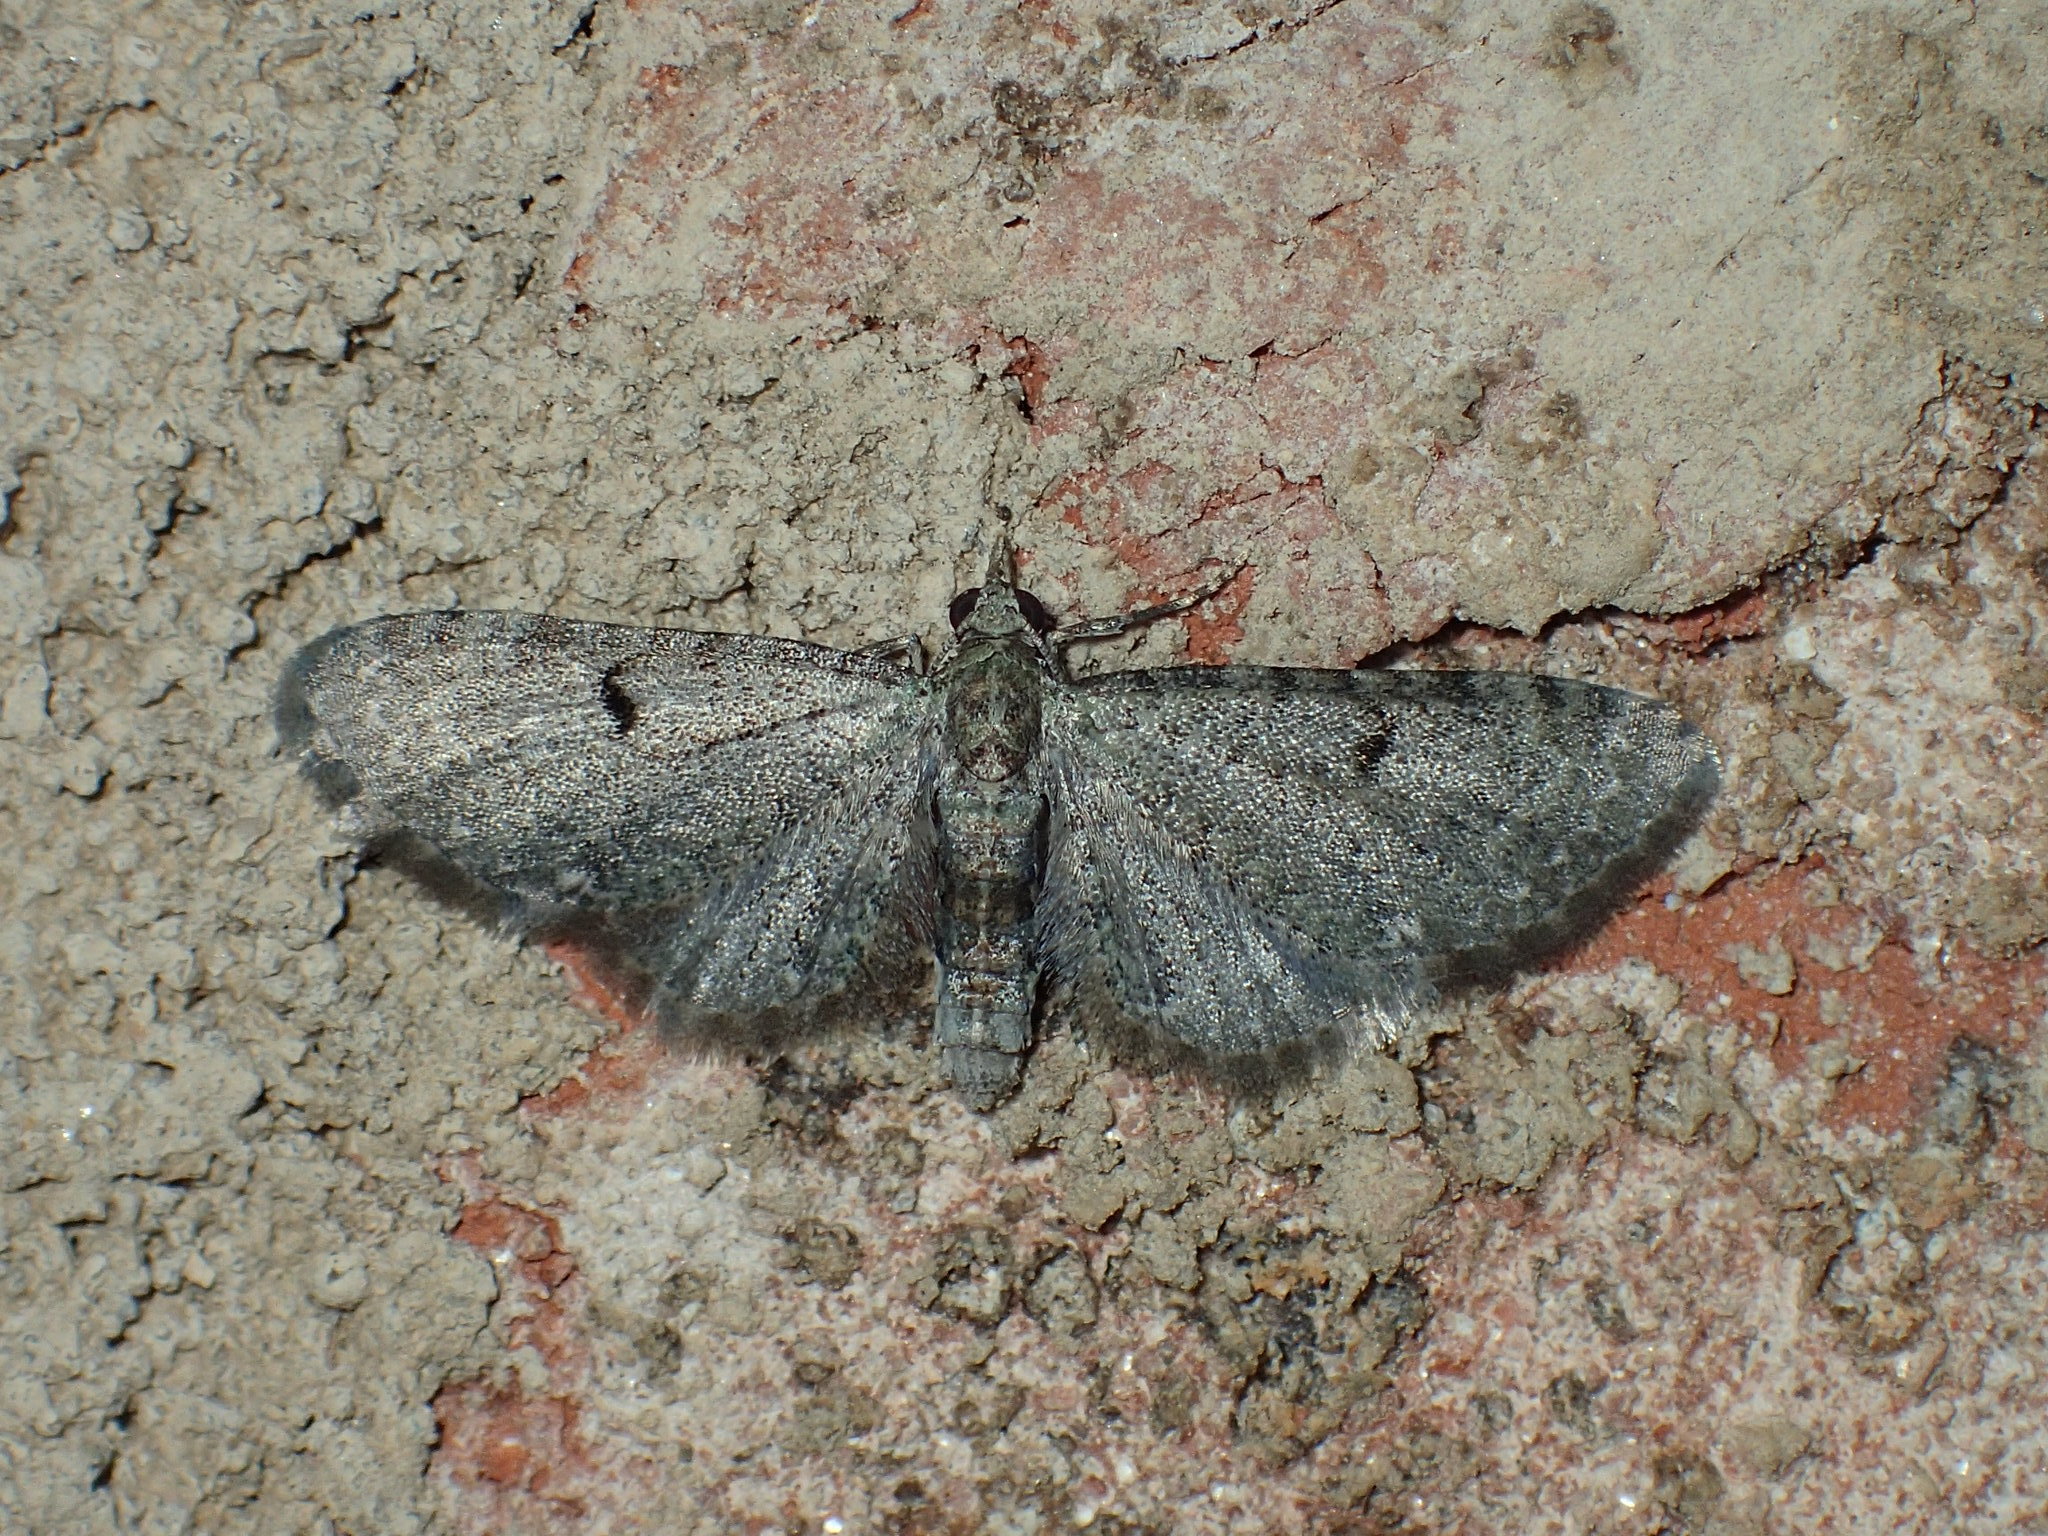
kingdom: Animalia
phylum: Arthropoda
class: Insecta
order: Lepidoptera
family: Geometridae
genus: Eupithecia
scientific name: Eupithecia miserulata
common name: Common eupithecia
